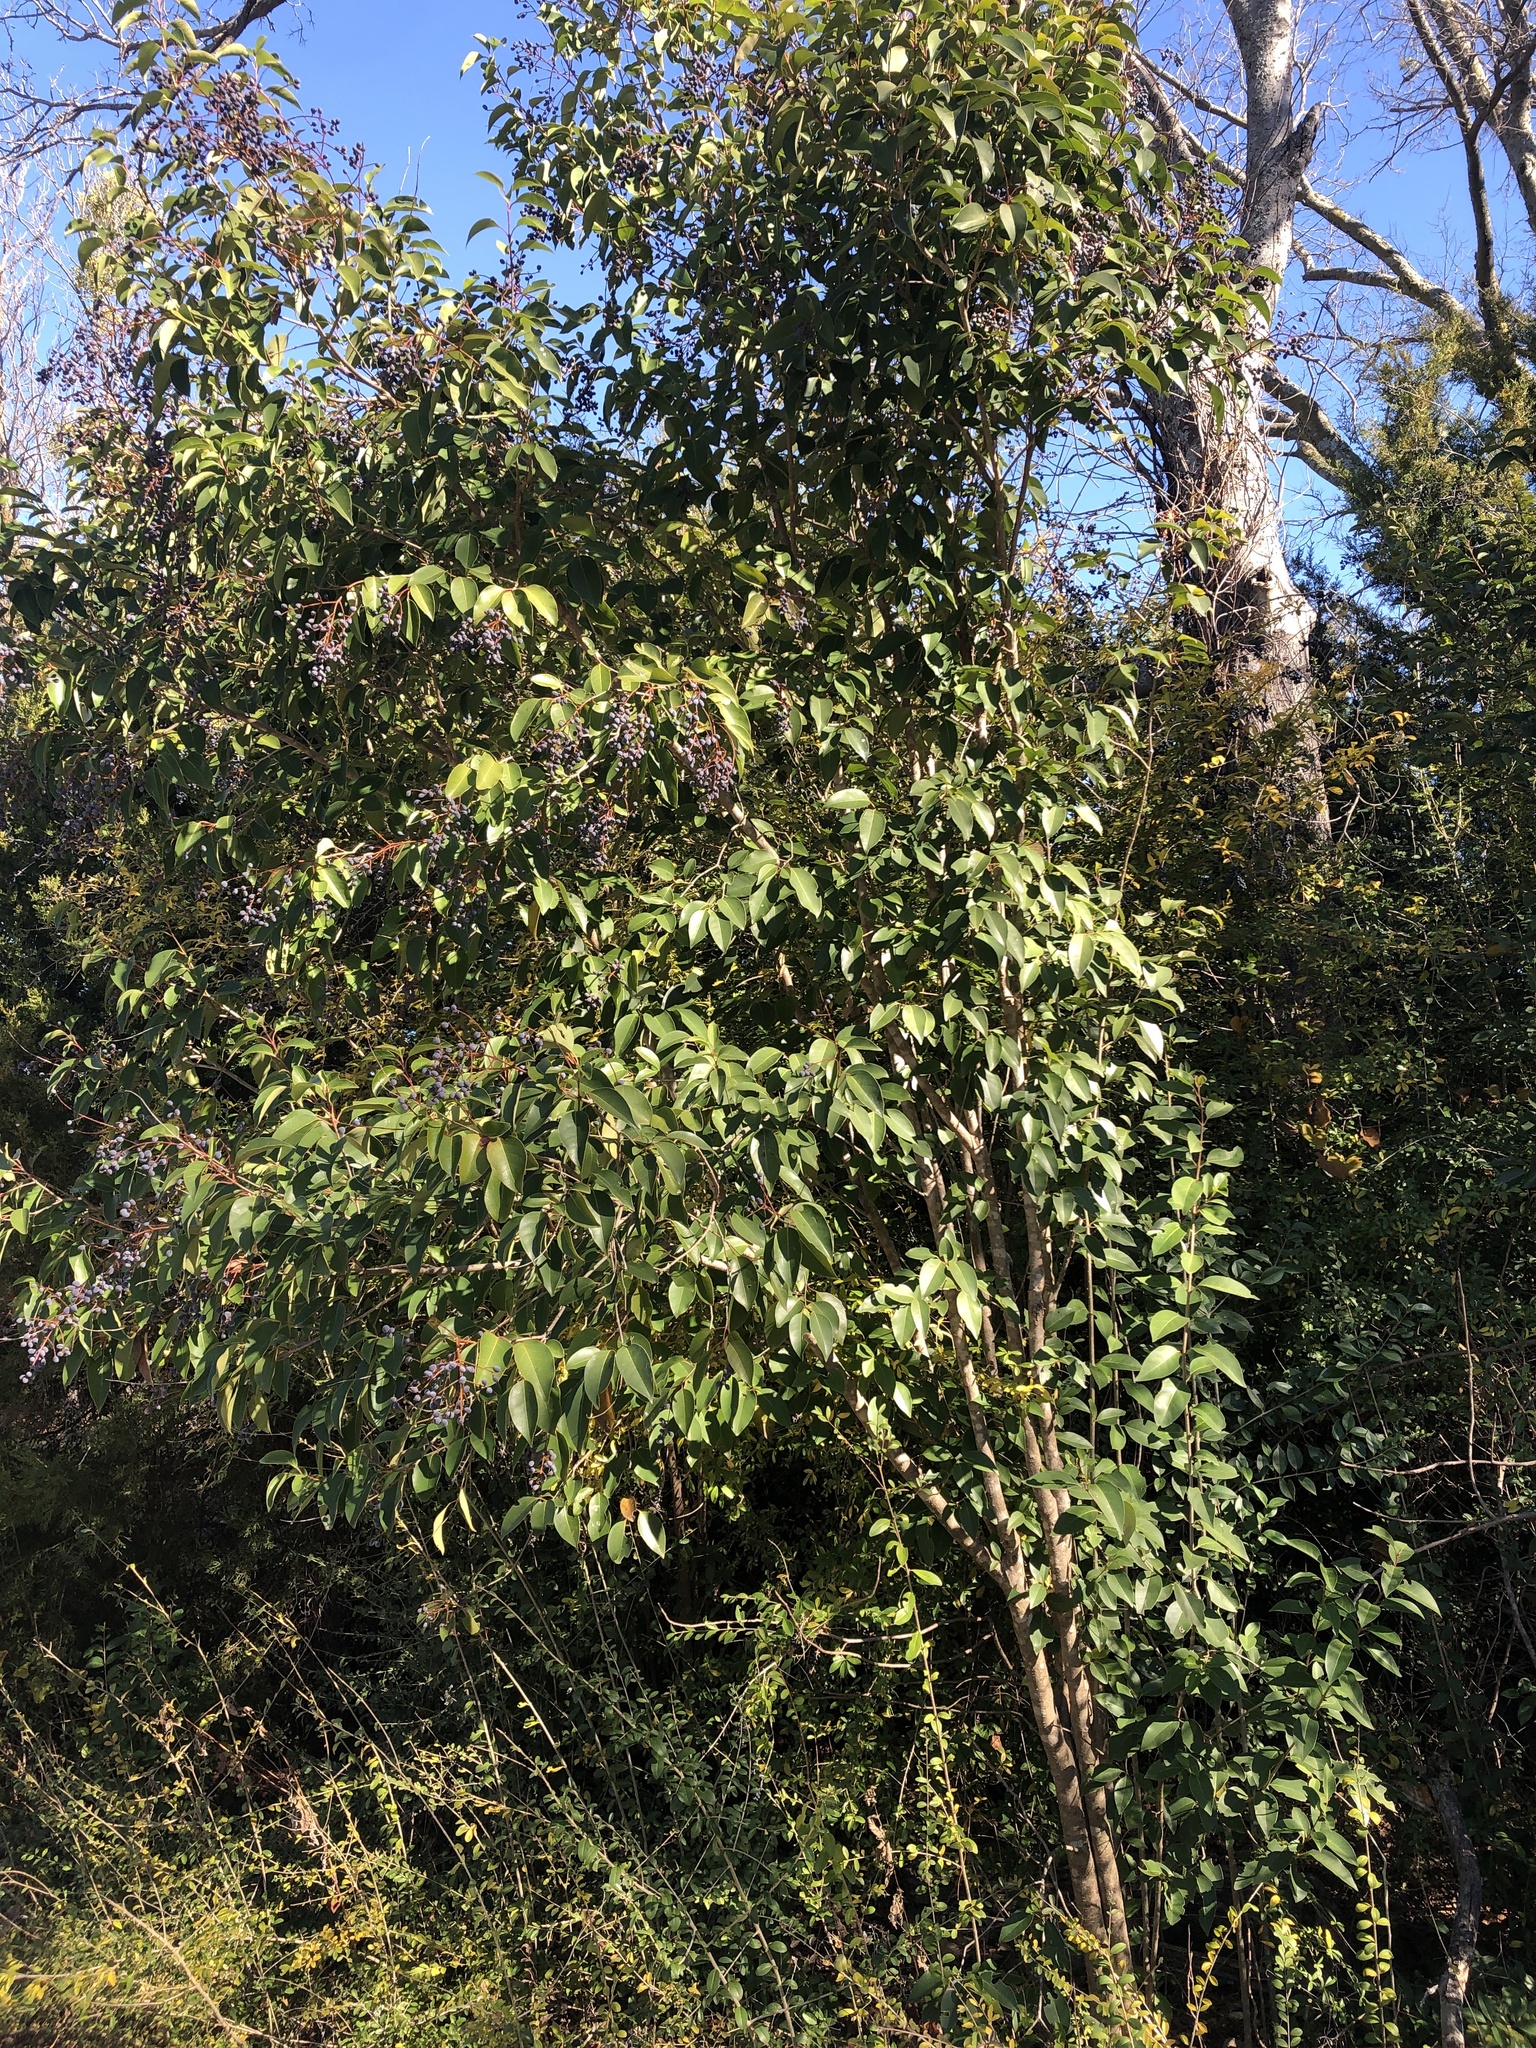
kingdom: Plantae
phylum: Tracheophyta
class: Magnoliopsida
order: Lamiales
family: Oleaceae
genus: Ligustrum
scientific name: Ligustrum lucidum
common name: Glossy privet
